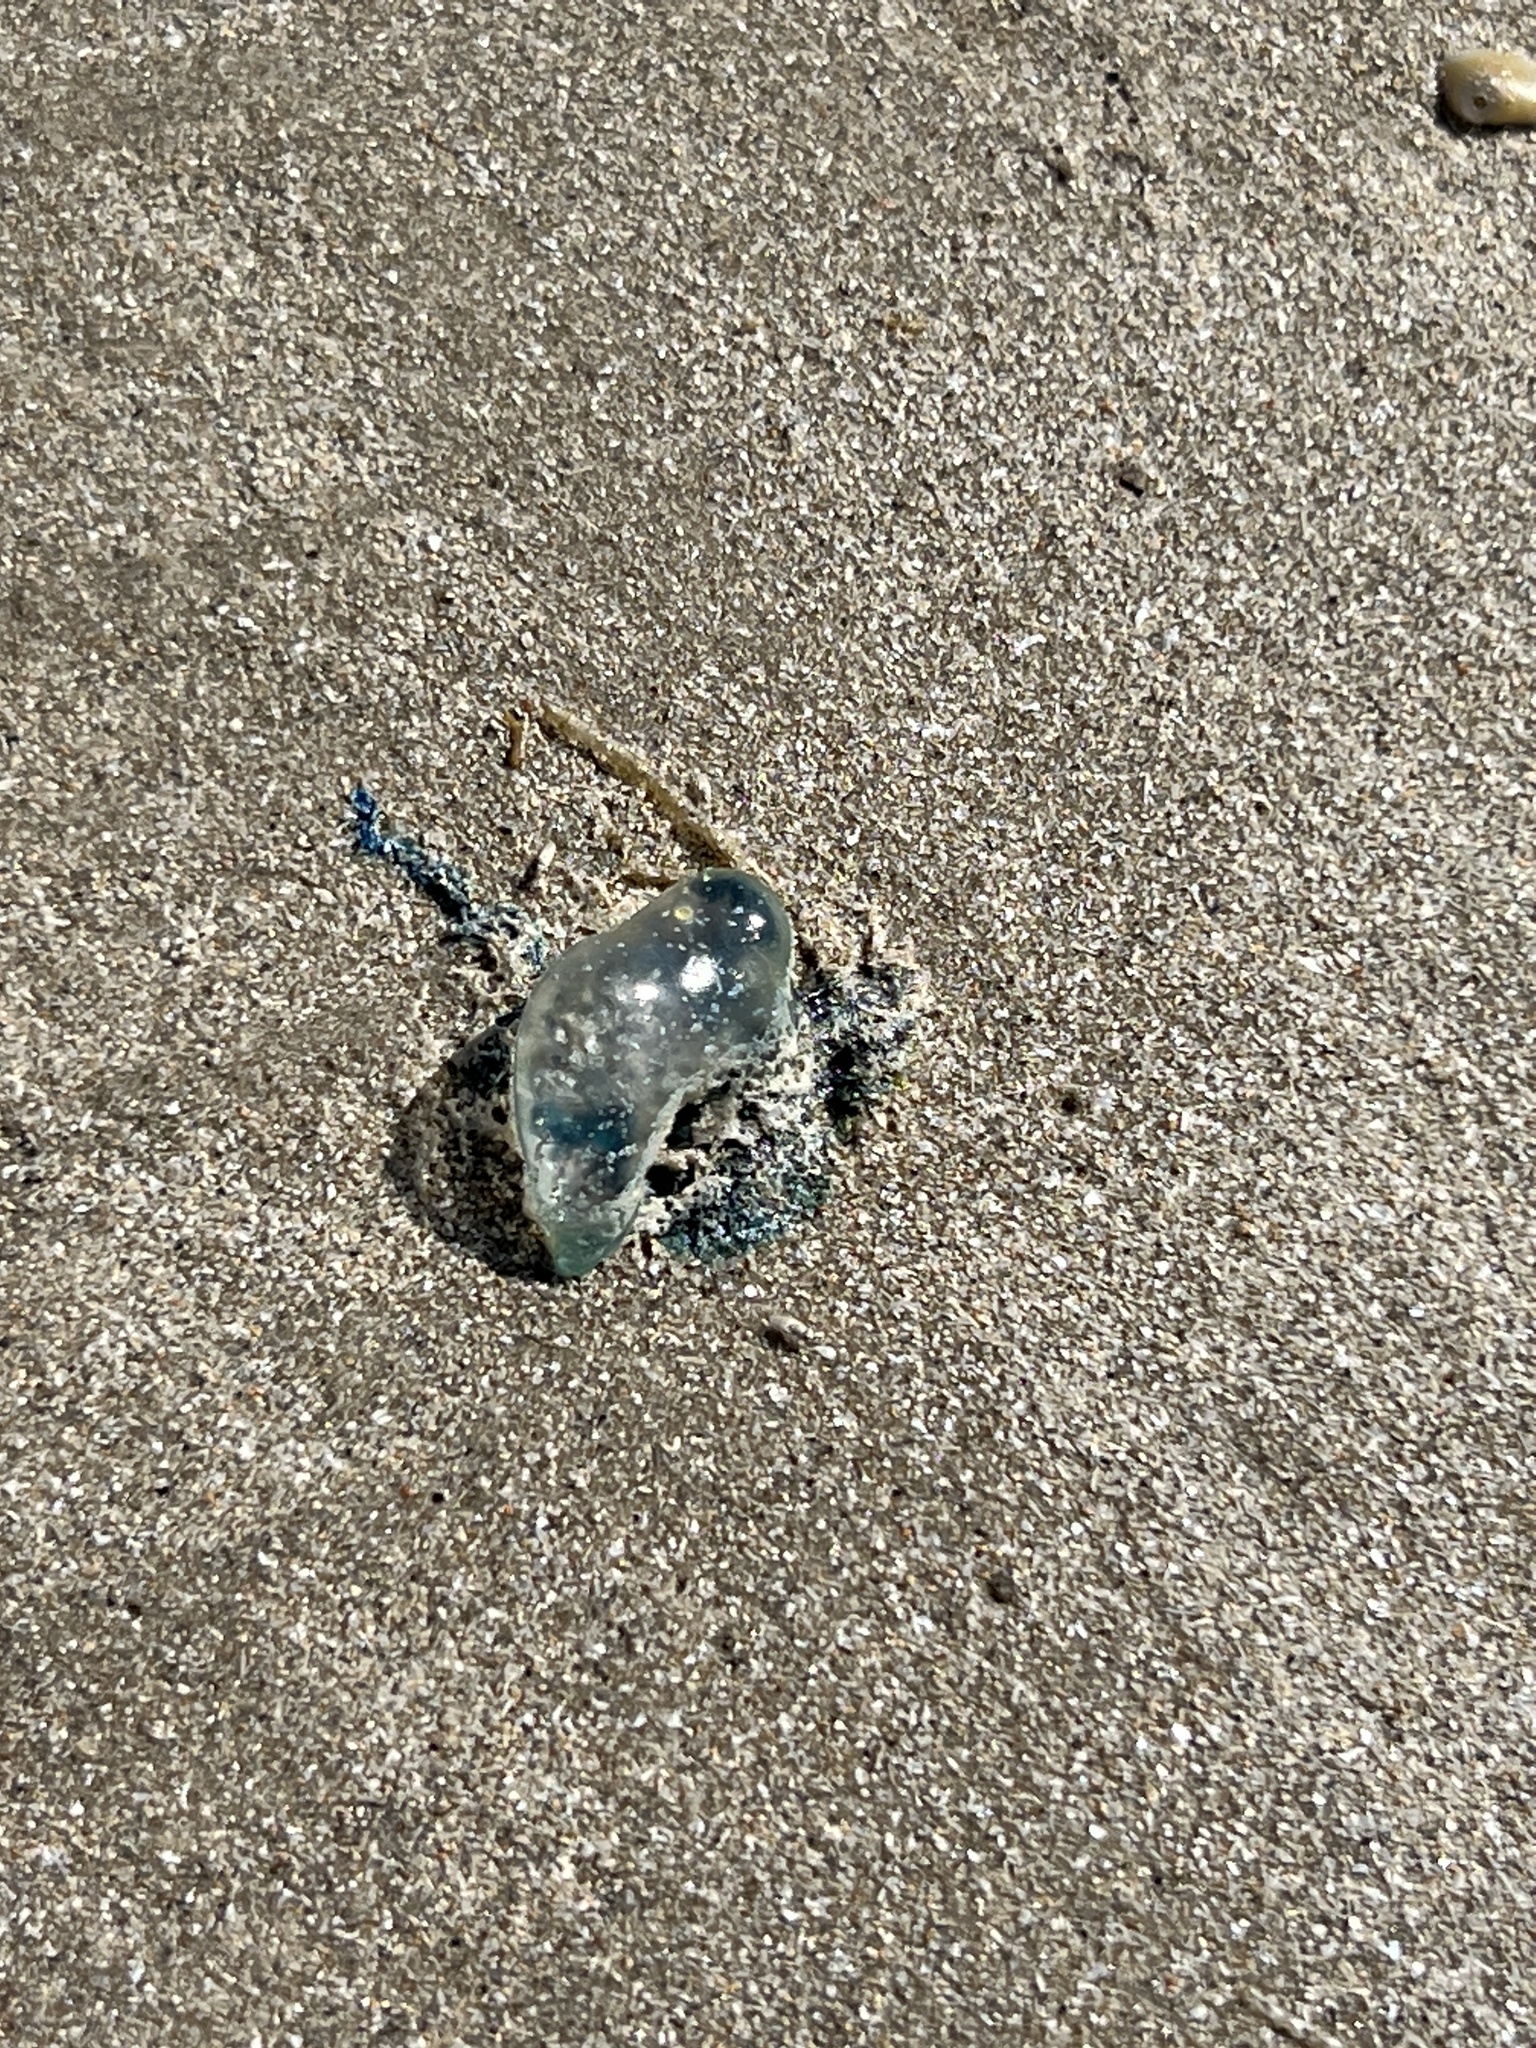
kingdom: Animalia
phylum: Cnidaria
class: Hydrozoa
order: Siphonophorae
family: Physaliidae
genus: Physalia
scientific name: Physalia physalis
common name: Portuguese man-of-war
